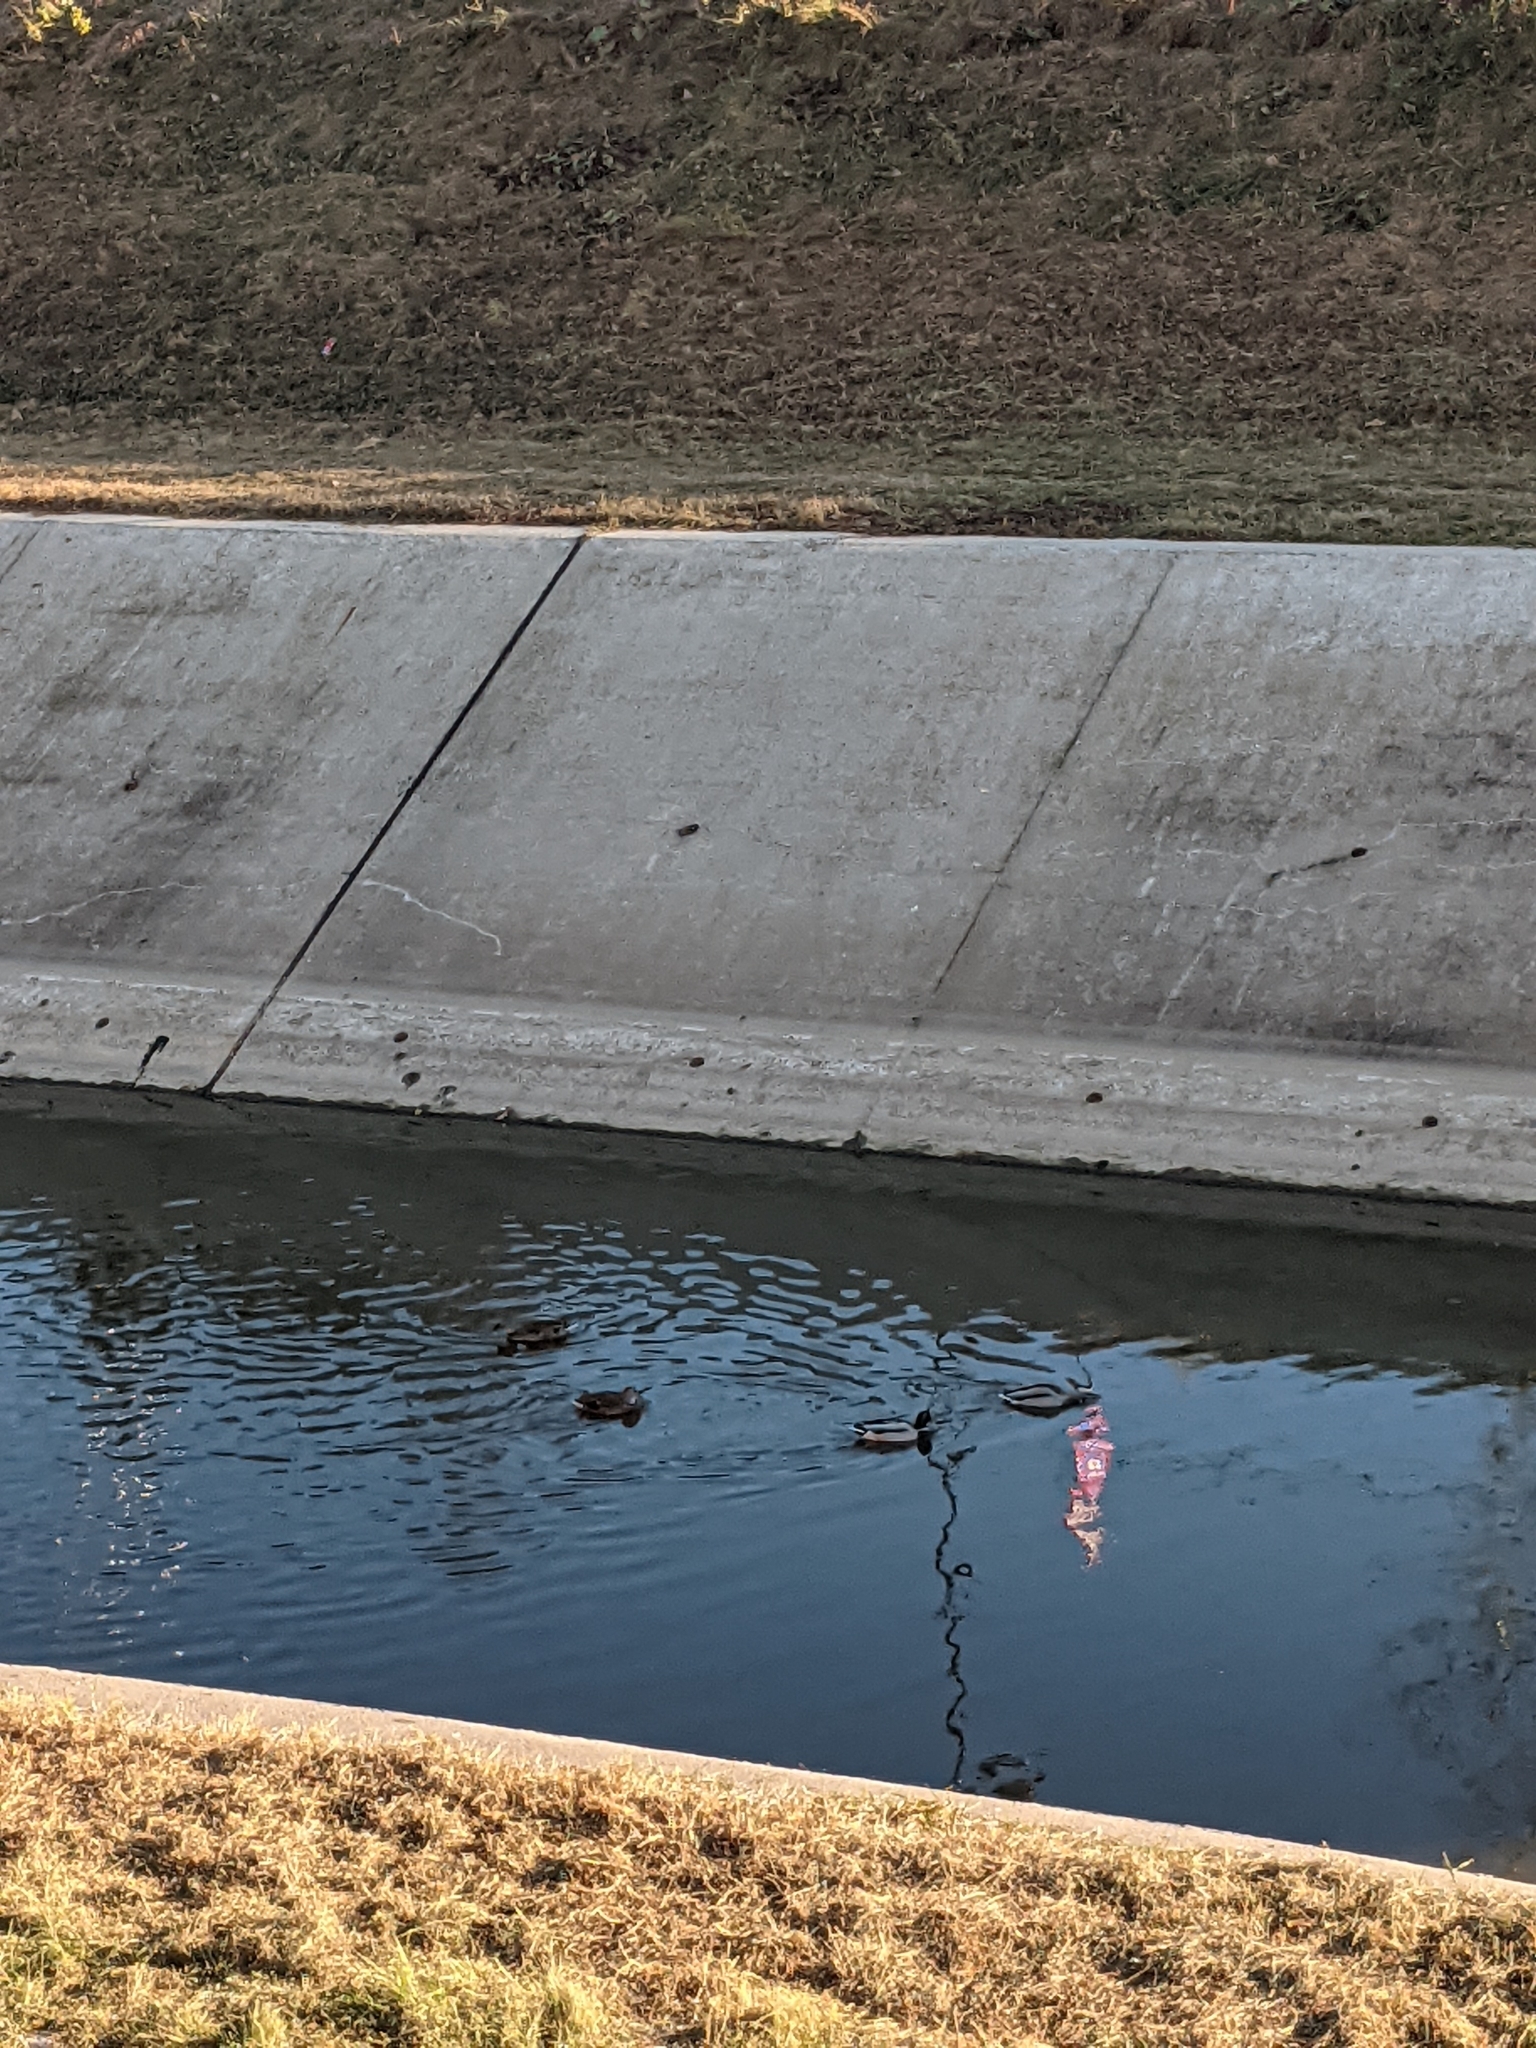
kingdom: Animalia
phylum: Chordata
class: Aves
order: Anseriformes
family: Anatidae
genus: Anas
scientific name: Anas platyrhynchos
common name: Mallard
